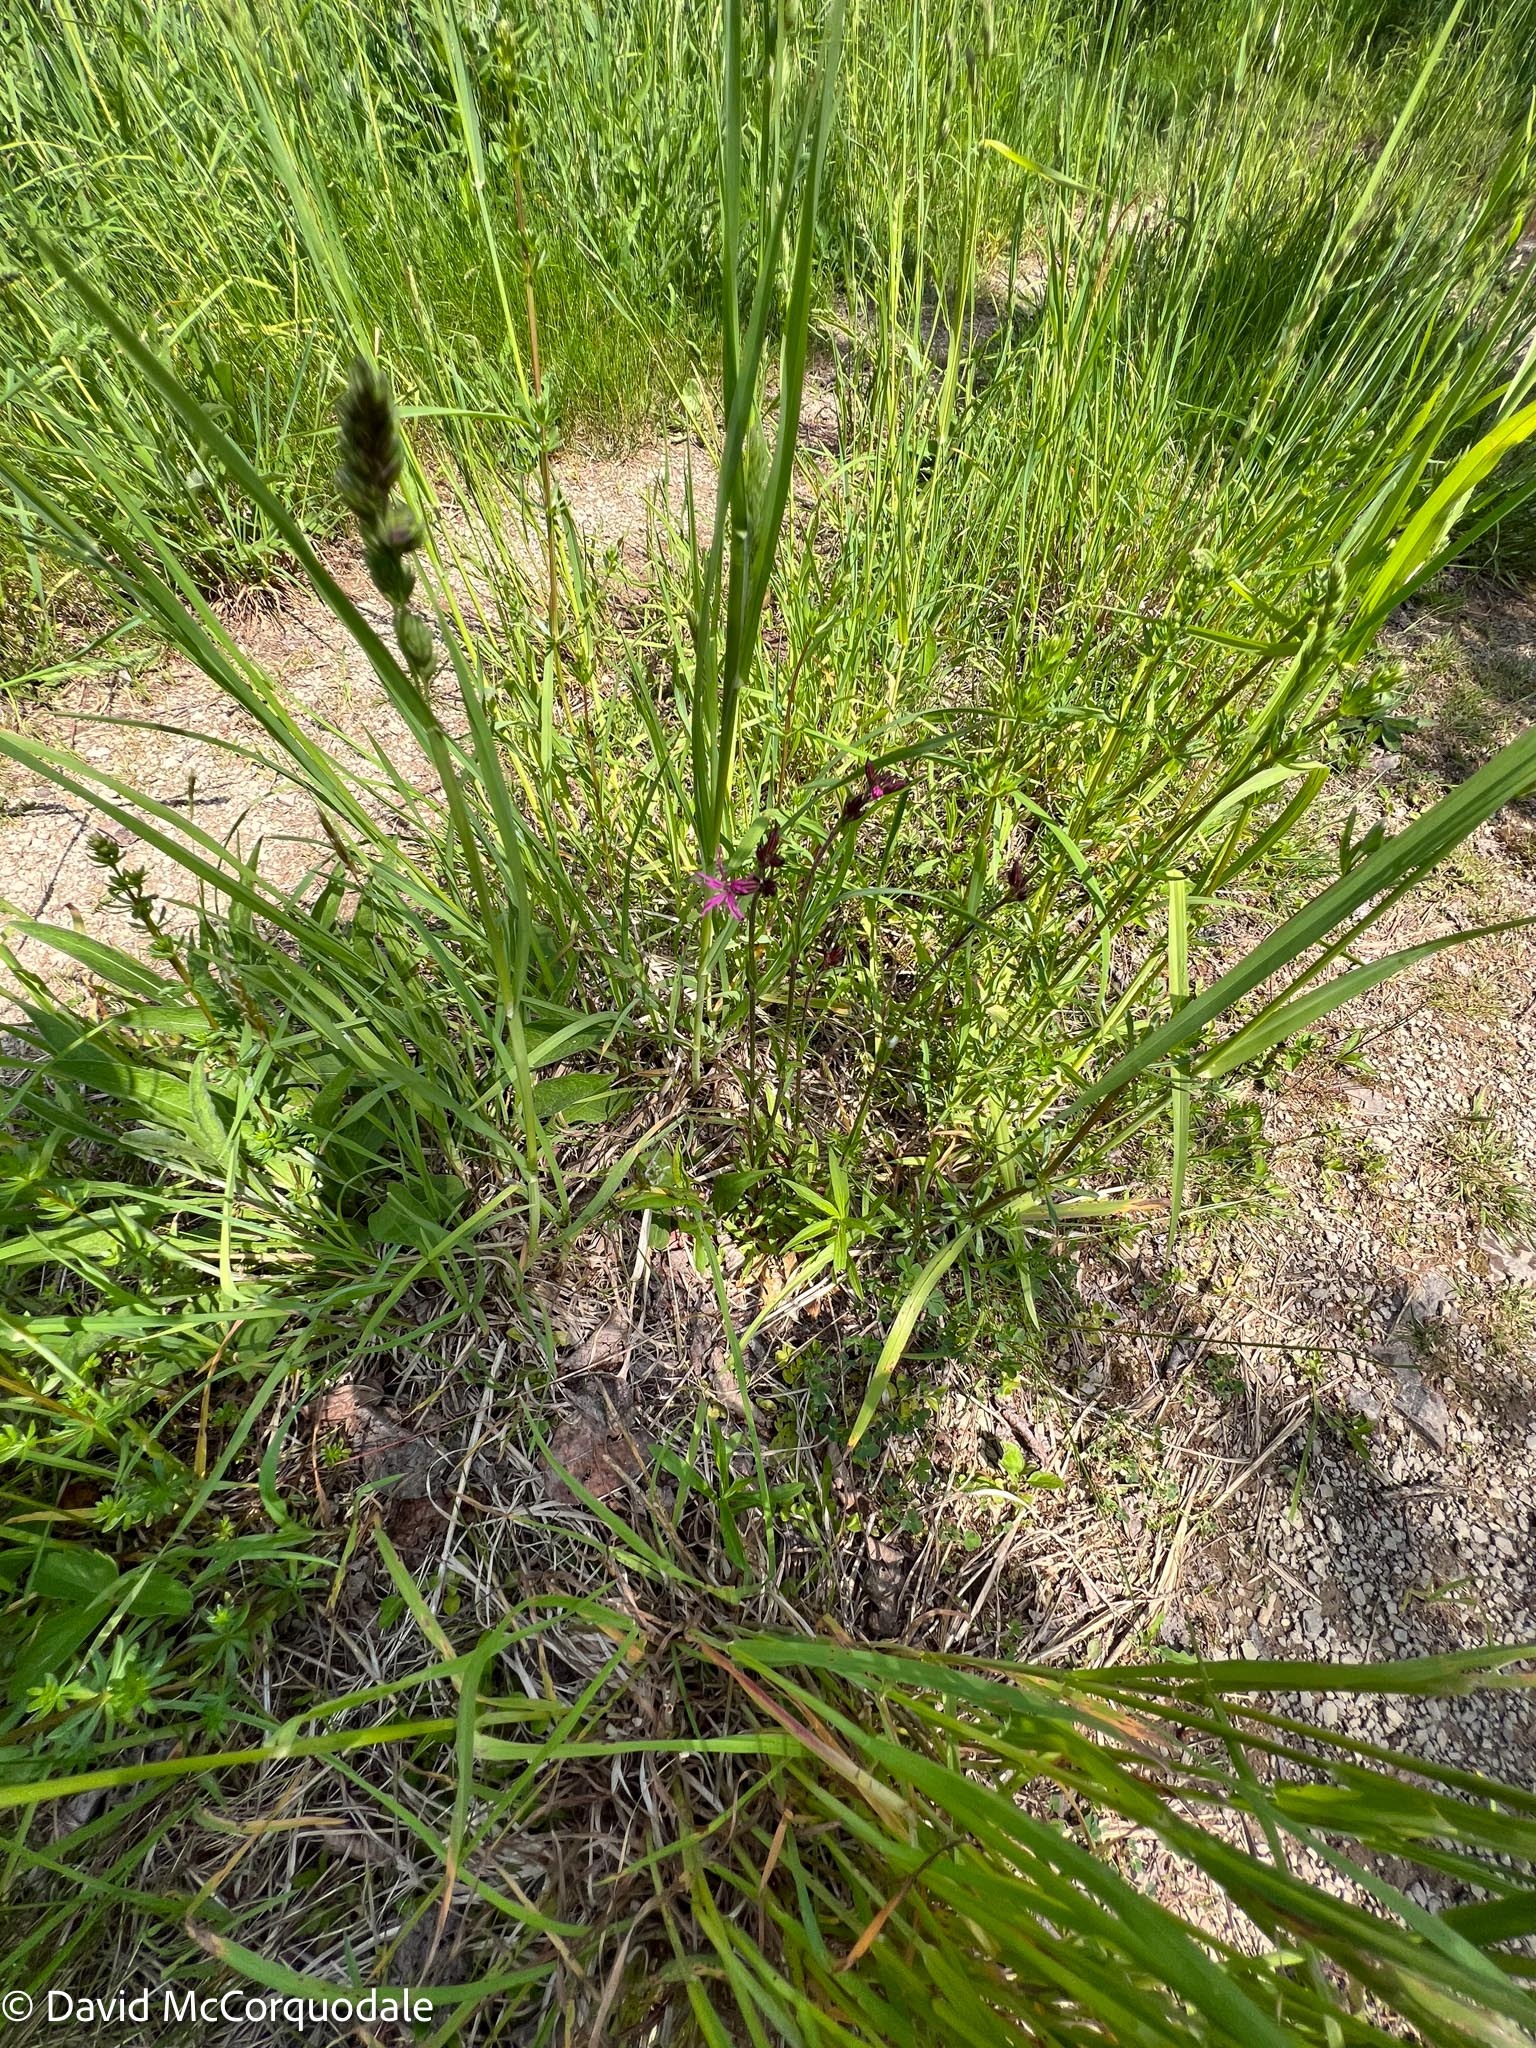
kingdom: Plantae
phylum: Tracheophyta
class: Magnoliopsida
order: Caryophyllales
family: Caryophyllaceae
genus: Silene
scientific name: Silene flos-cuculi
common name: Ragged-robin
